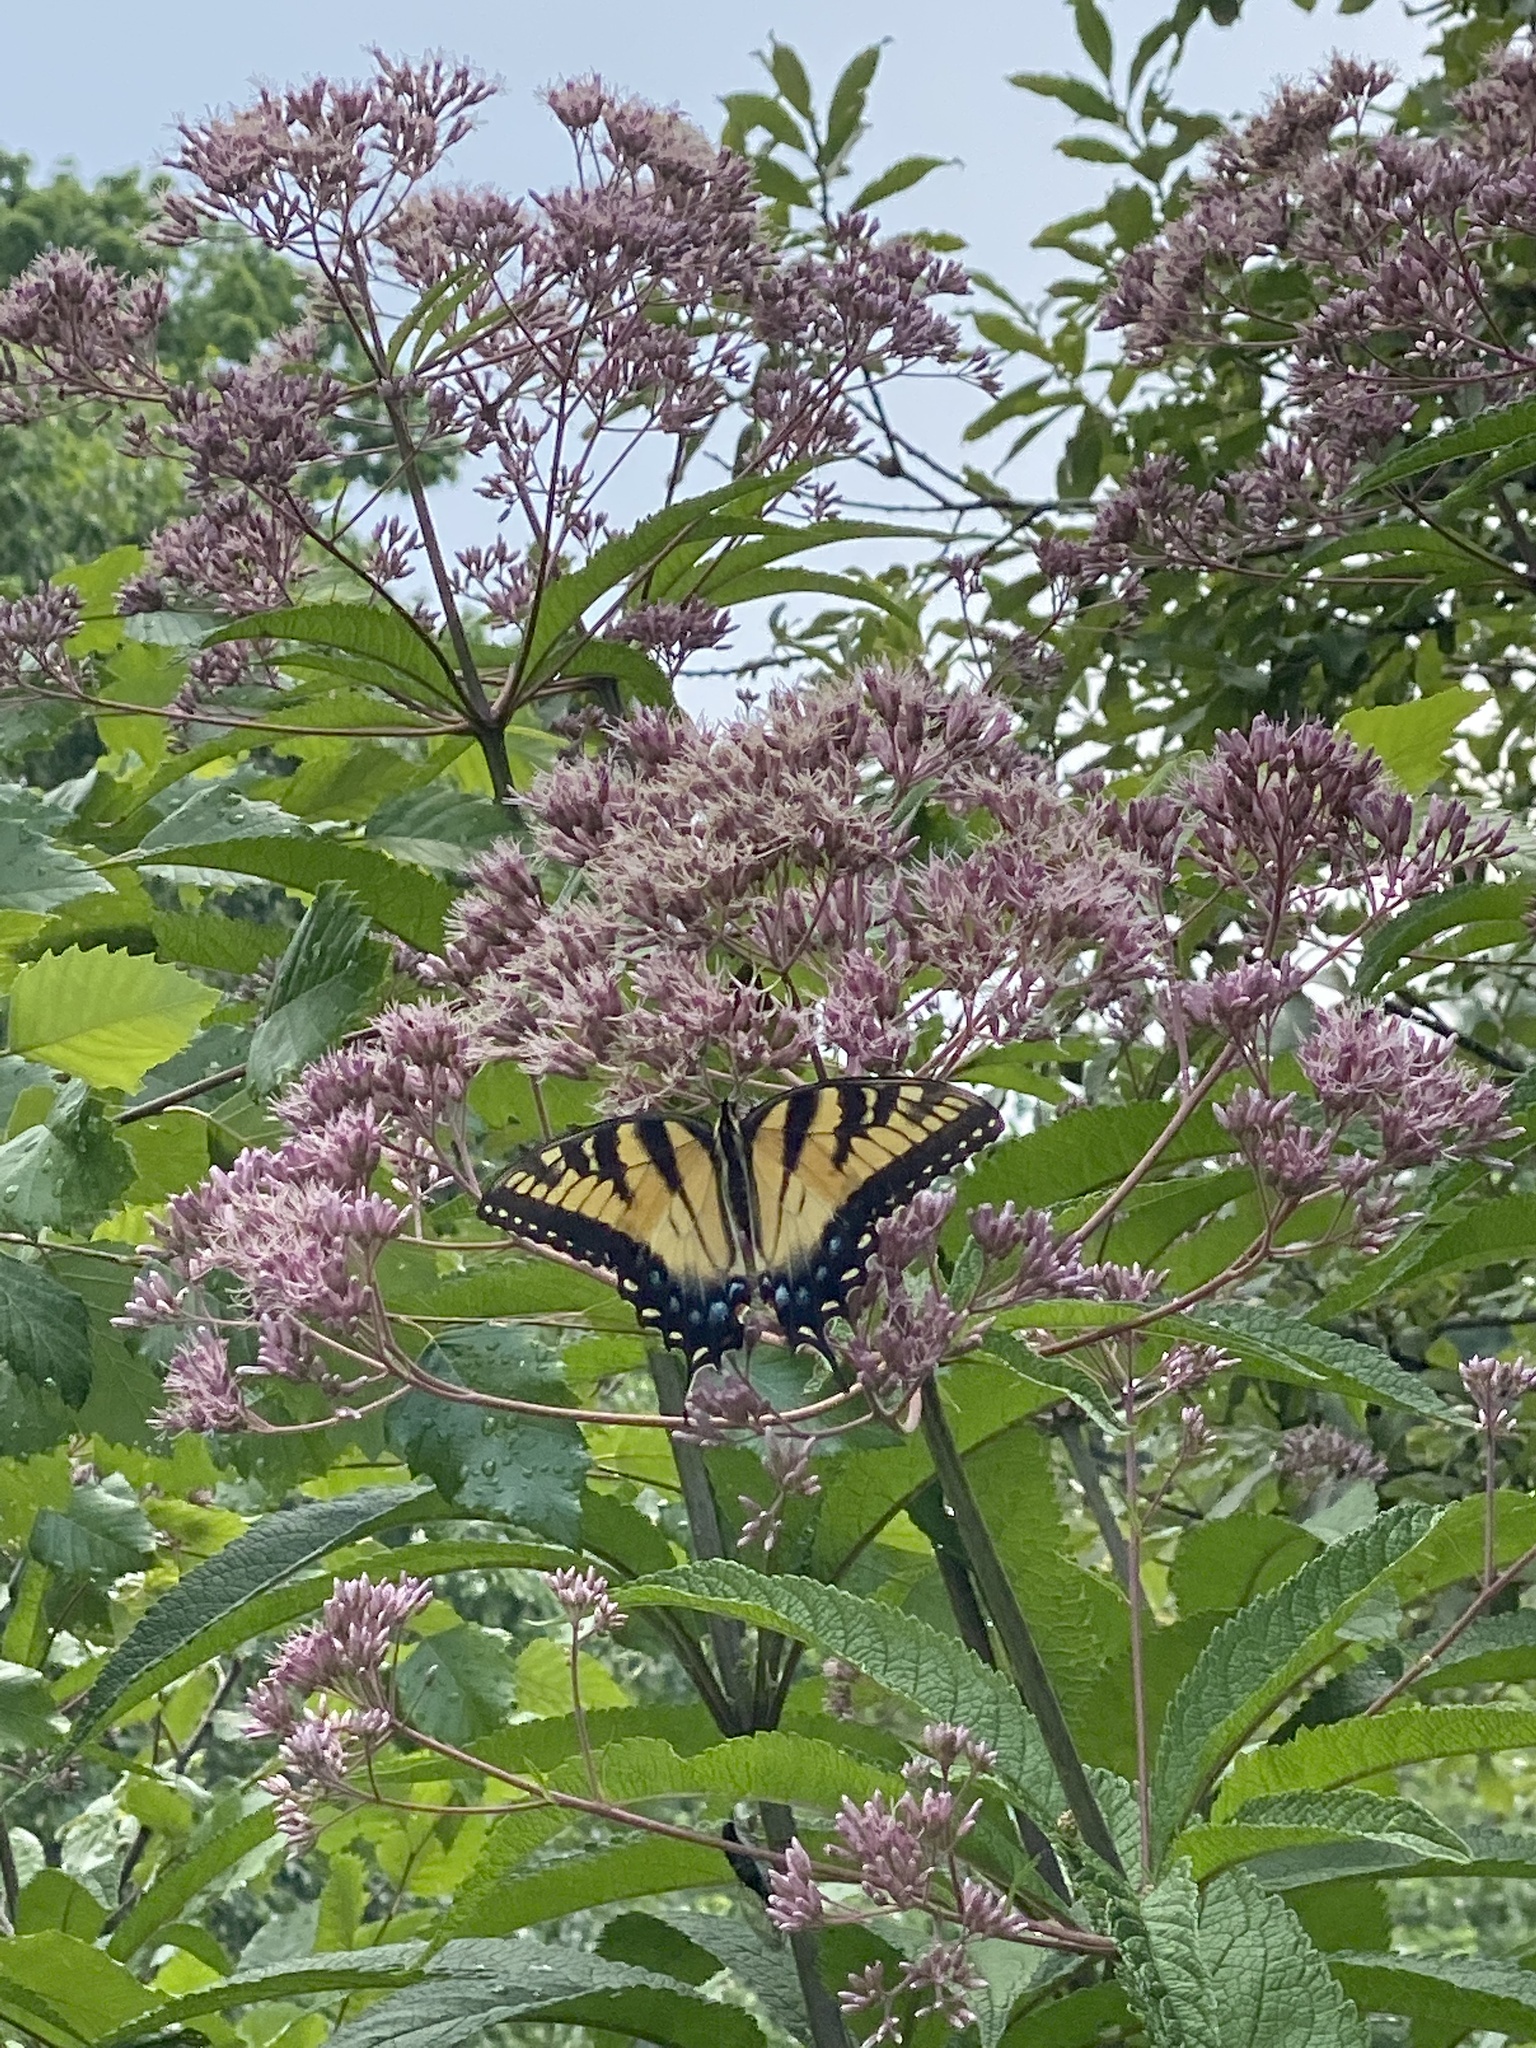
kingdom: Animalia
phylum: Arthropoda
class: Insecta
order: Lepidoptera
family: Papilionidae
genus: Papilio
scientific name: Papilio glaucus
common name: Tiger swallowtail
